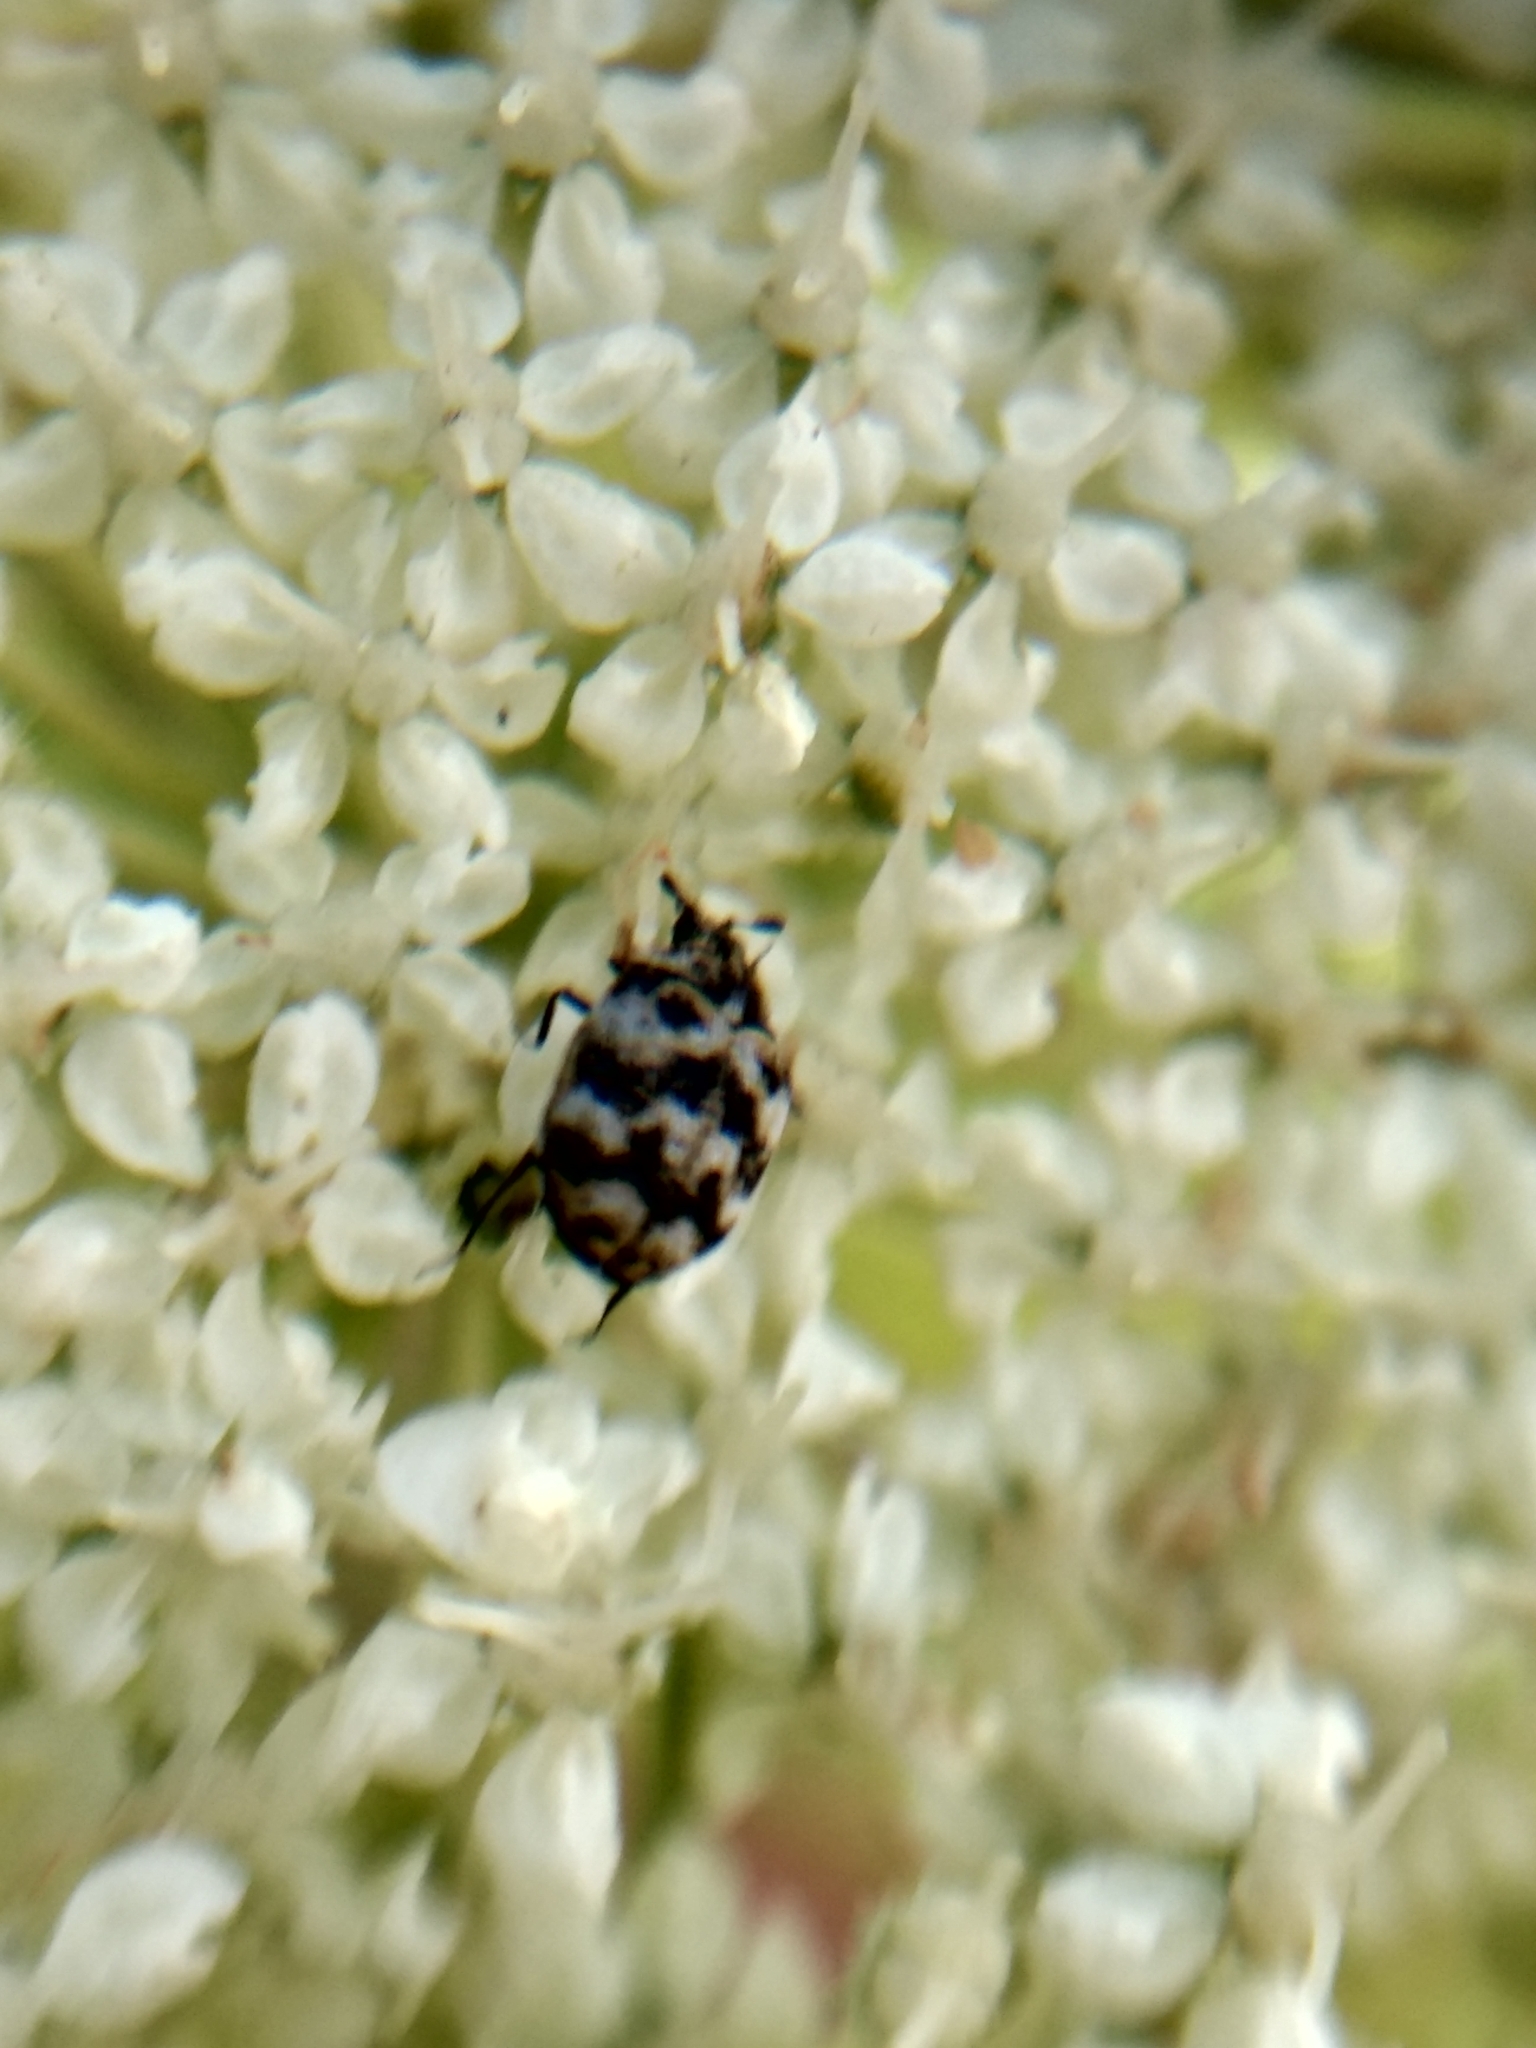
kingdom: Animalia
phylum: Arthropoda
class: Insecta
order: Coleoptera
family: Dermestidae
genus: Anthrenus
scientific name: Anthrenus verbasci
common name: Varied carpet beetle
